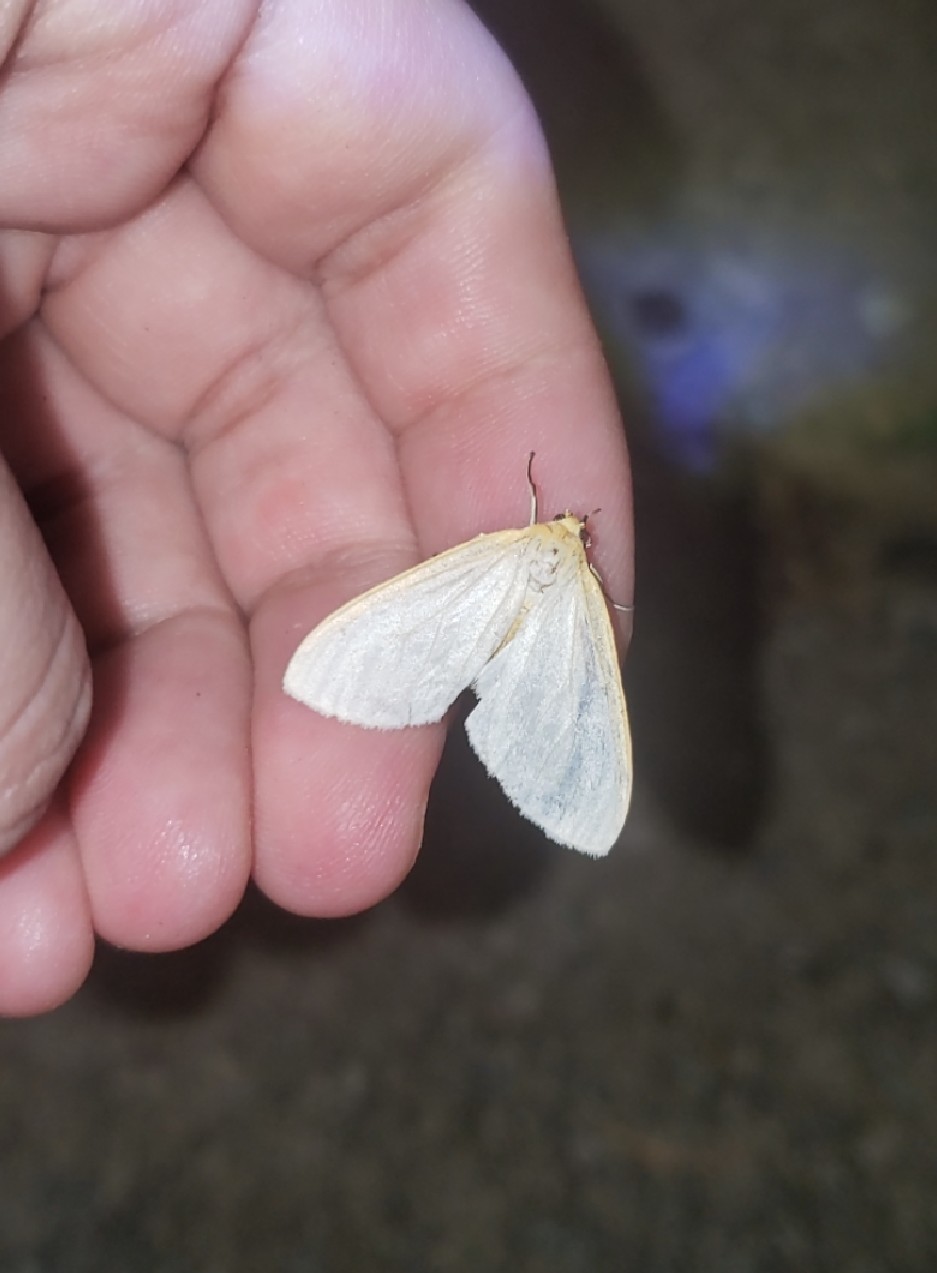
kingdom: Animalia
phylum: Arthropoda
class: Insecta
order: Lepidoptera
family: Erebidae
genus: Cycnia
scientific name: Cycnia tenera
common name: Delicate cycnia moth
